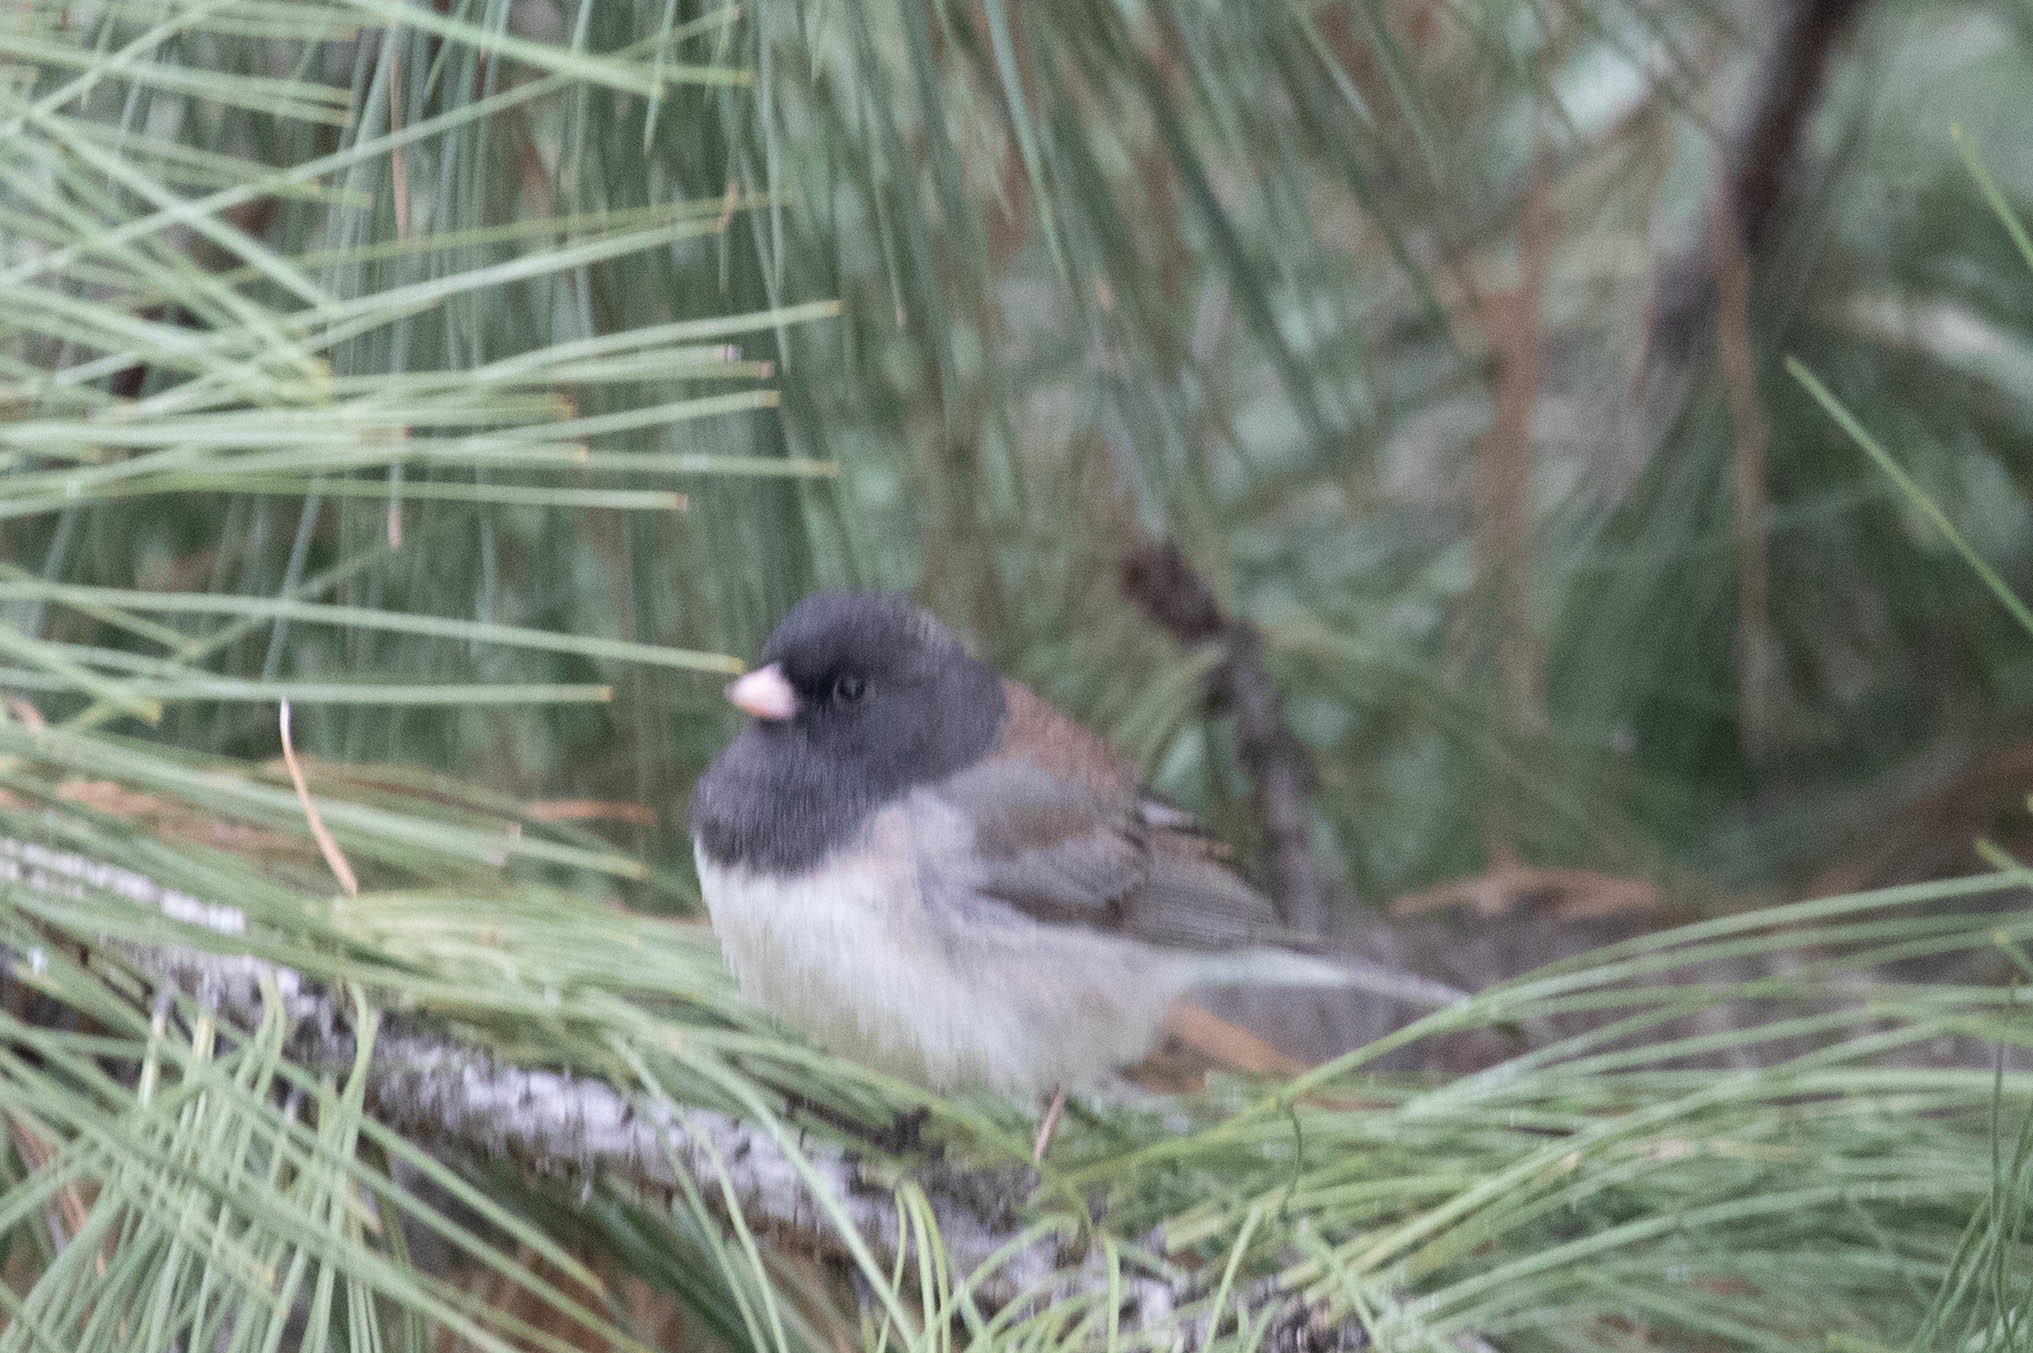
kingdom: Animalia
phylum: Chordata
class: Aves
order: Passeriformes
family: Passerellidae
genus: Junco
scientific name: Junco hyemalis
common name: Dark-eyed junco
